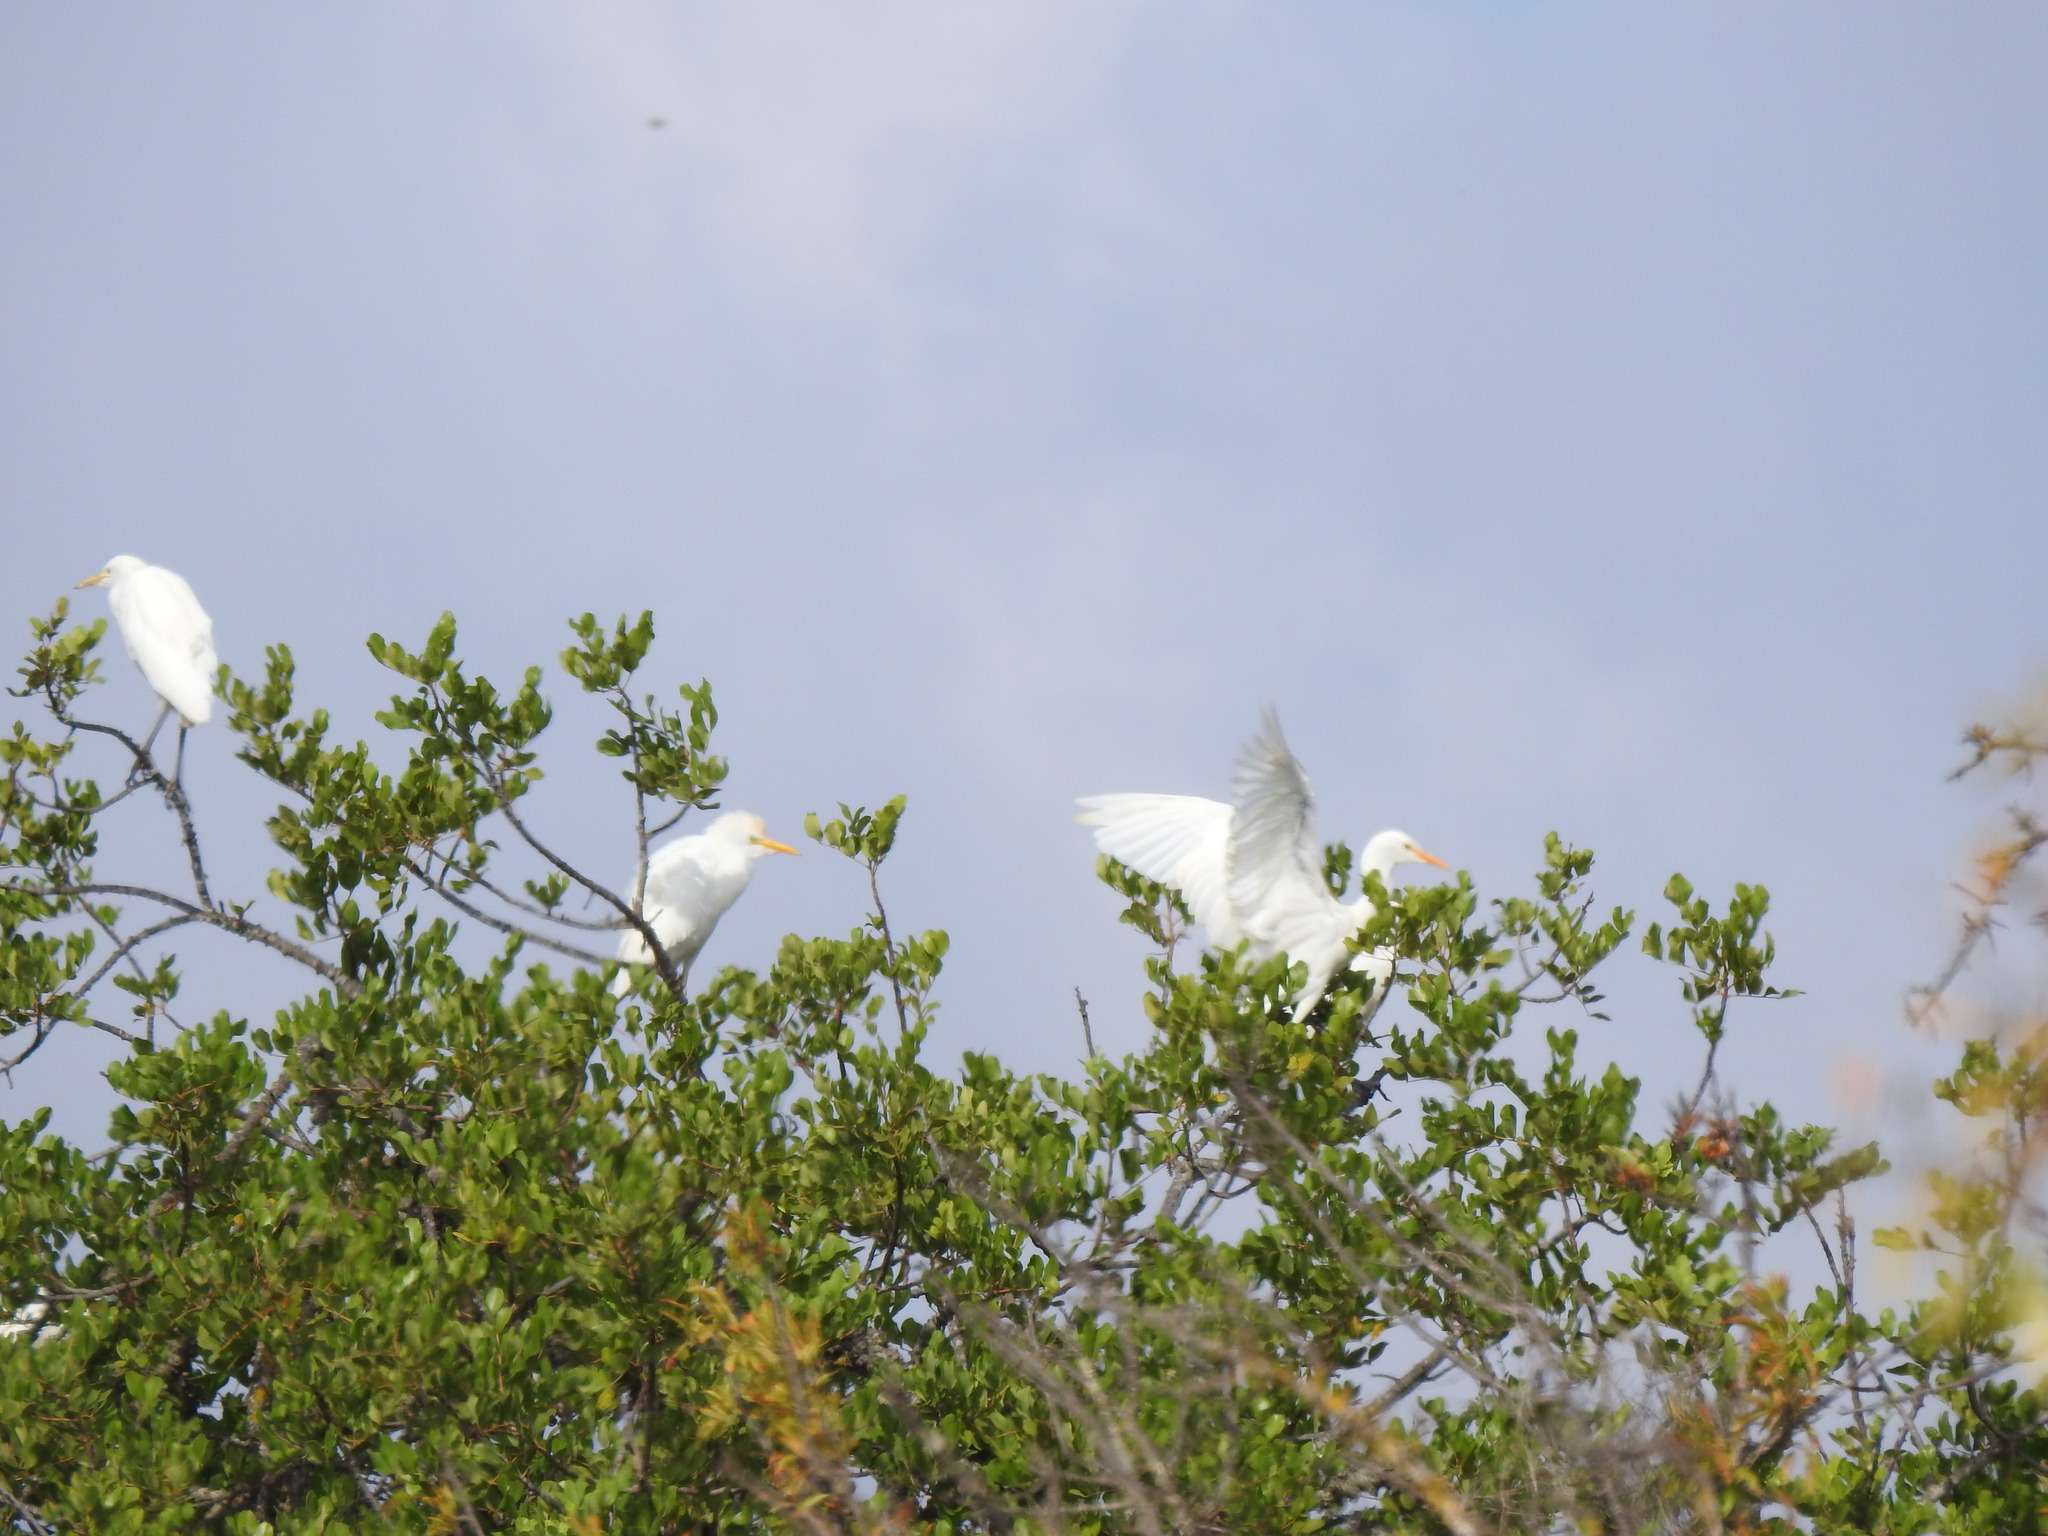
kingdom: Animalia
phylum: Chordata
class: Aves
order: Pelecaniformes
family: Ardeidae
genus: Bubulcus
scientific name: Bubulcus ibis
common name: Cattle egret
